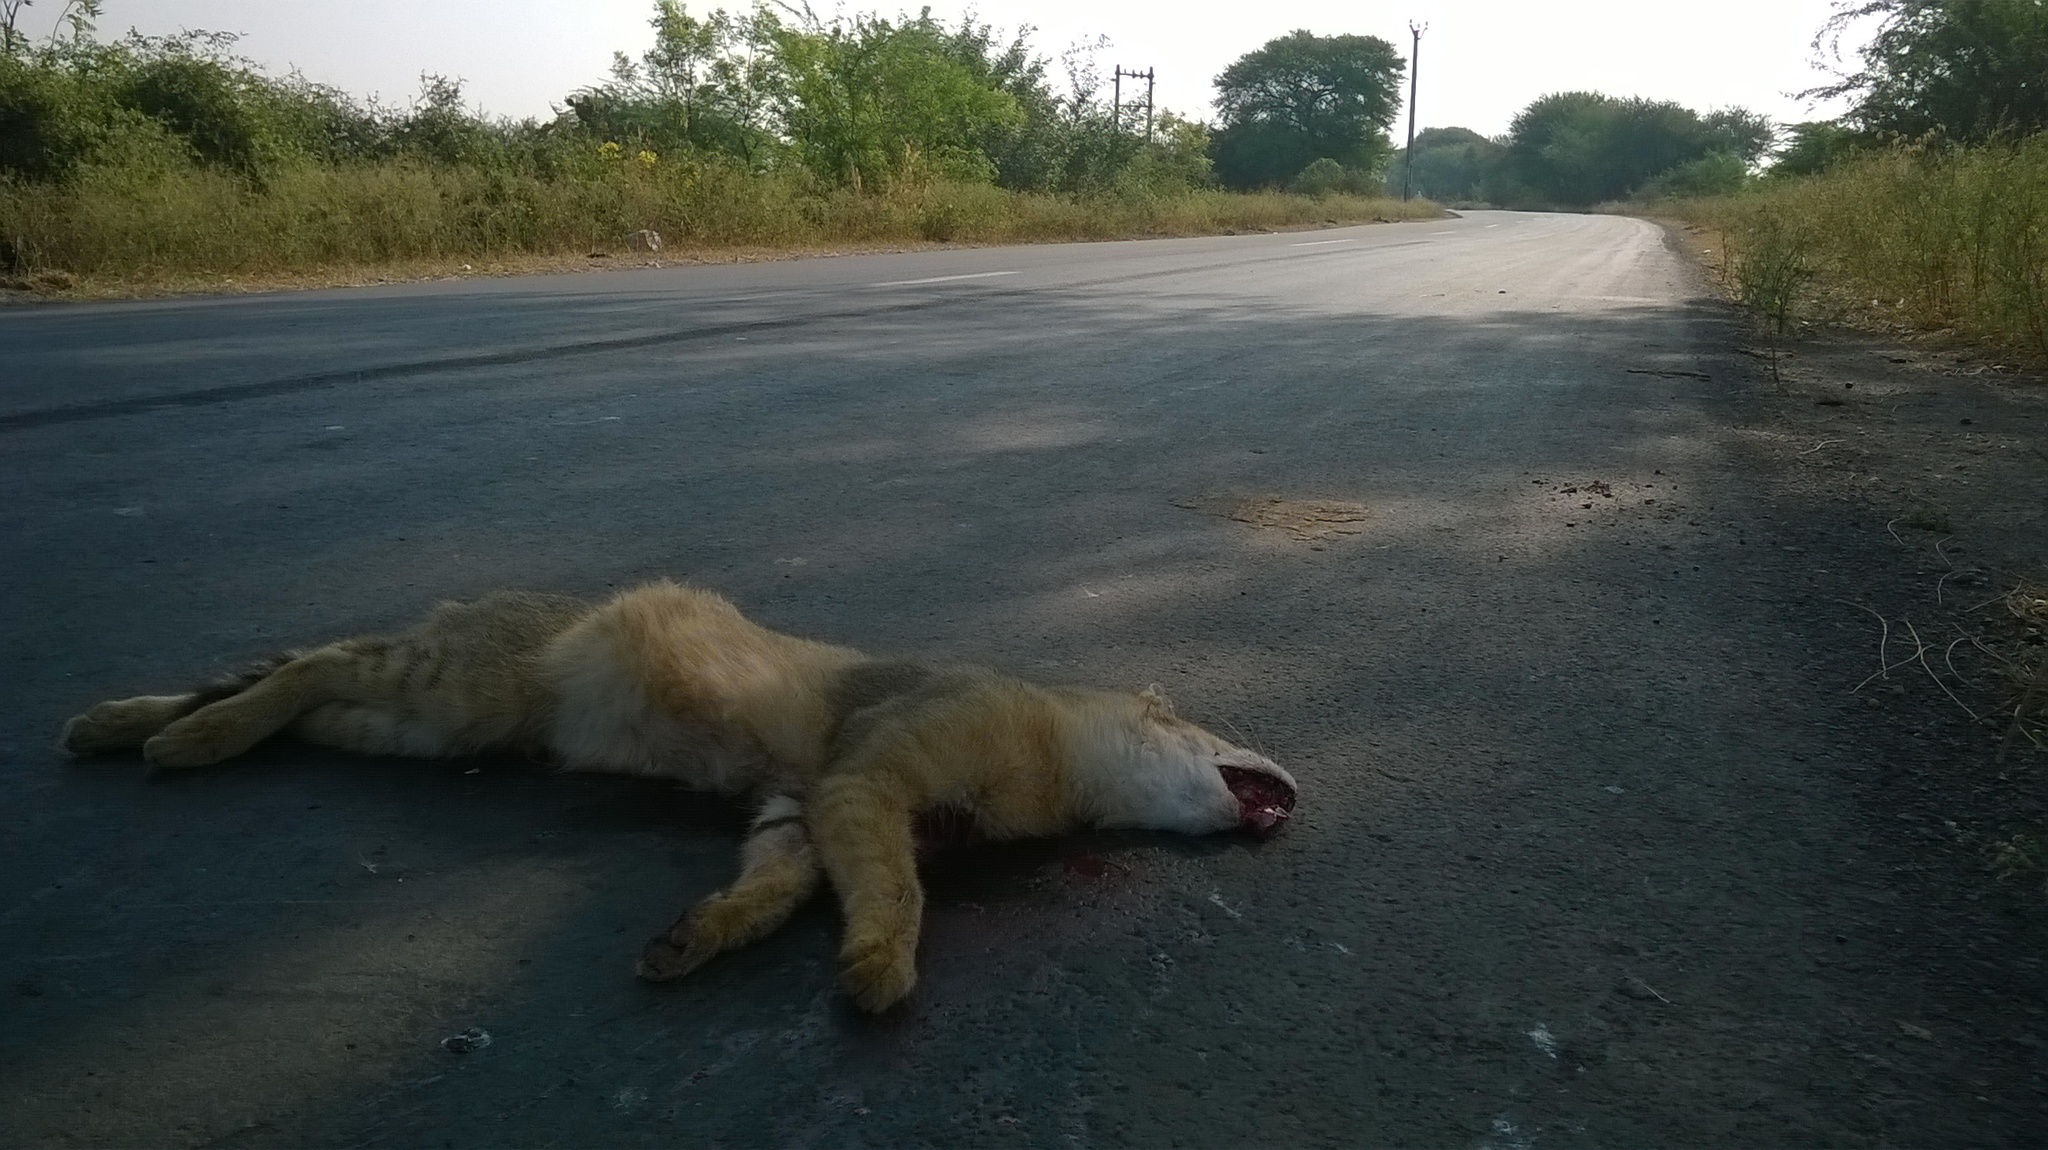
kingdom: Animalia
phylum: Chordata
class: Mammalia
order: Carnivora
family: Felidae
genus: Felis
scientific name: Felis chaus
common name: Jungle cat
